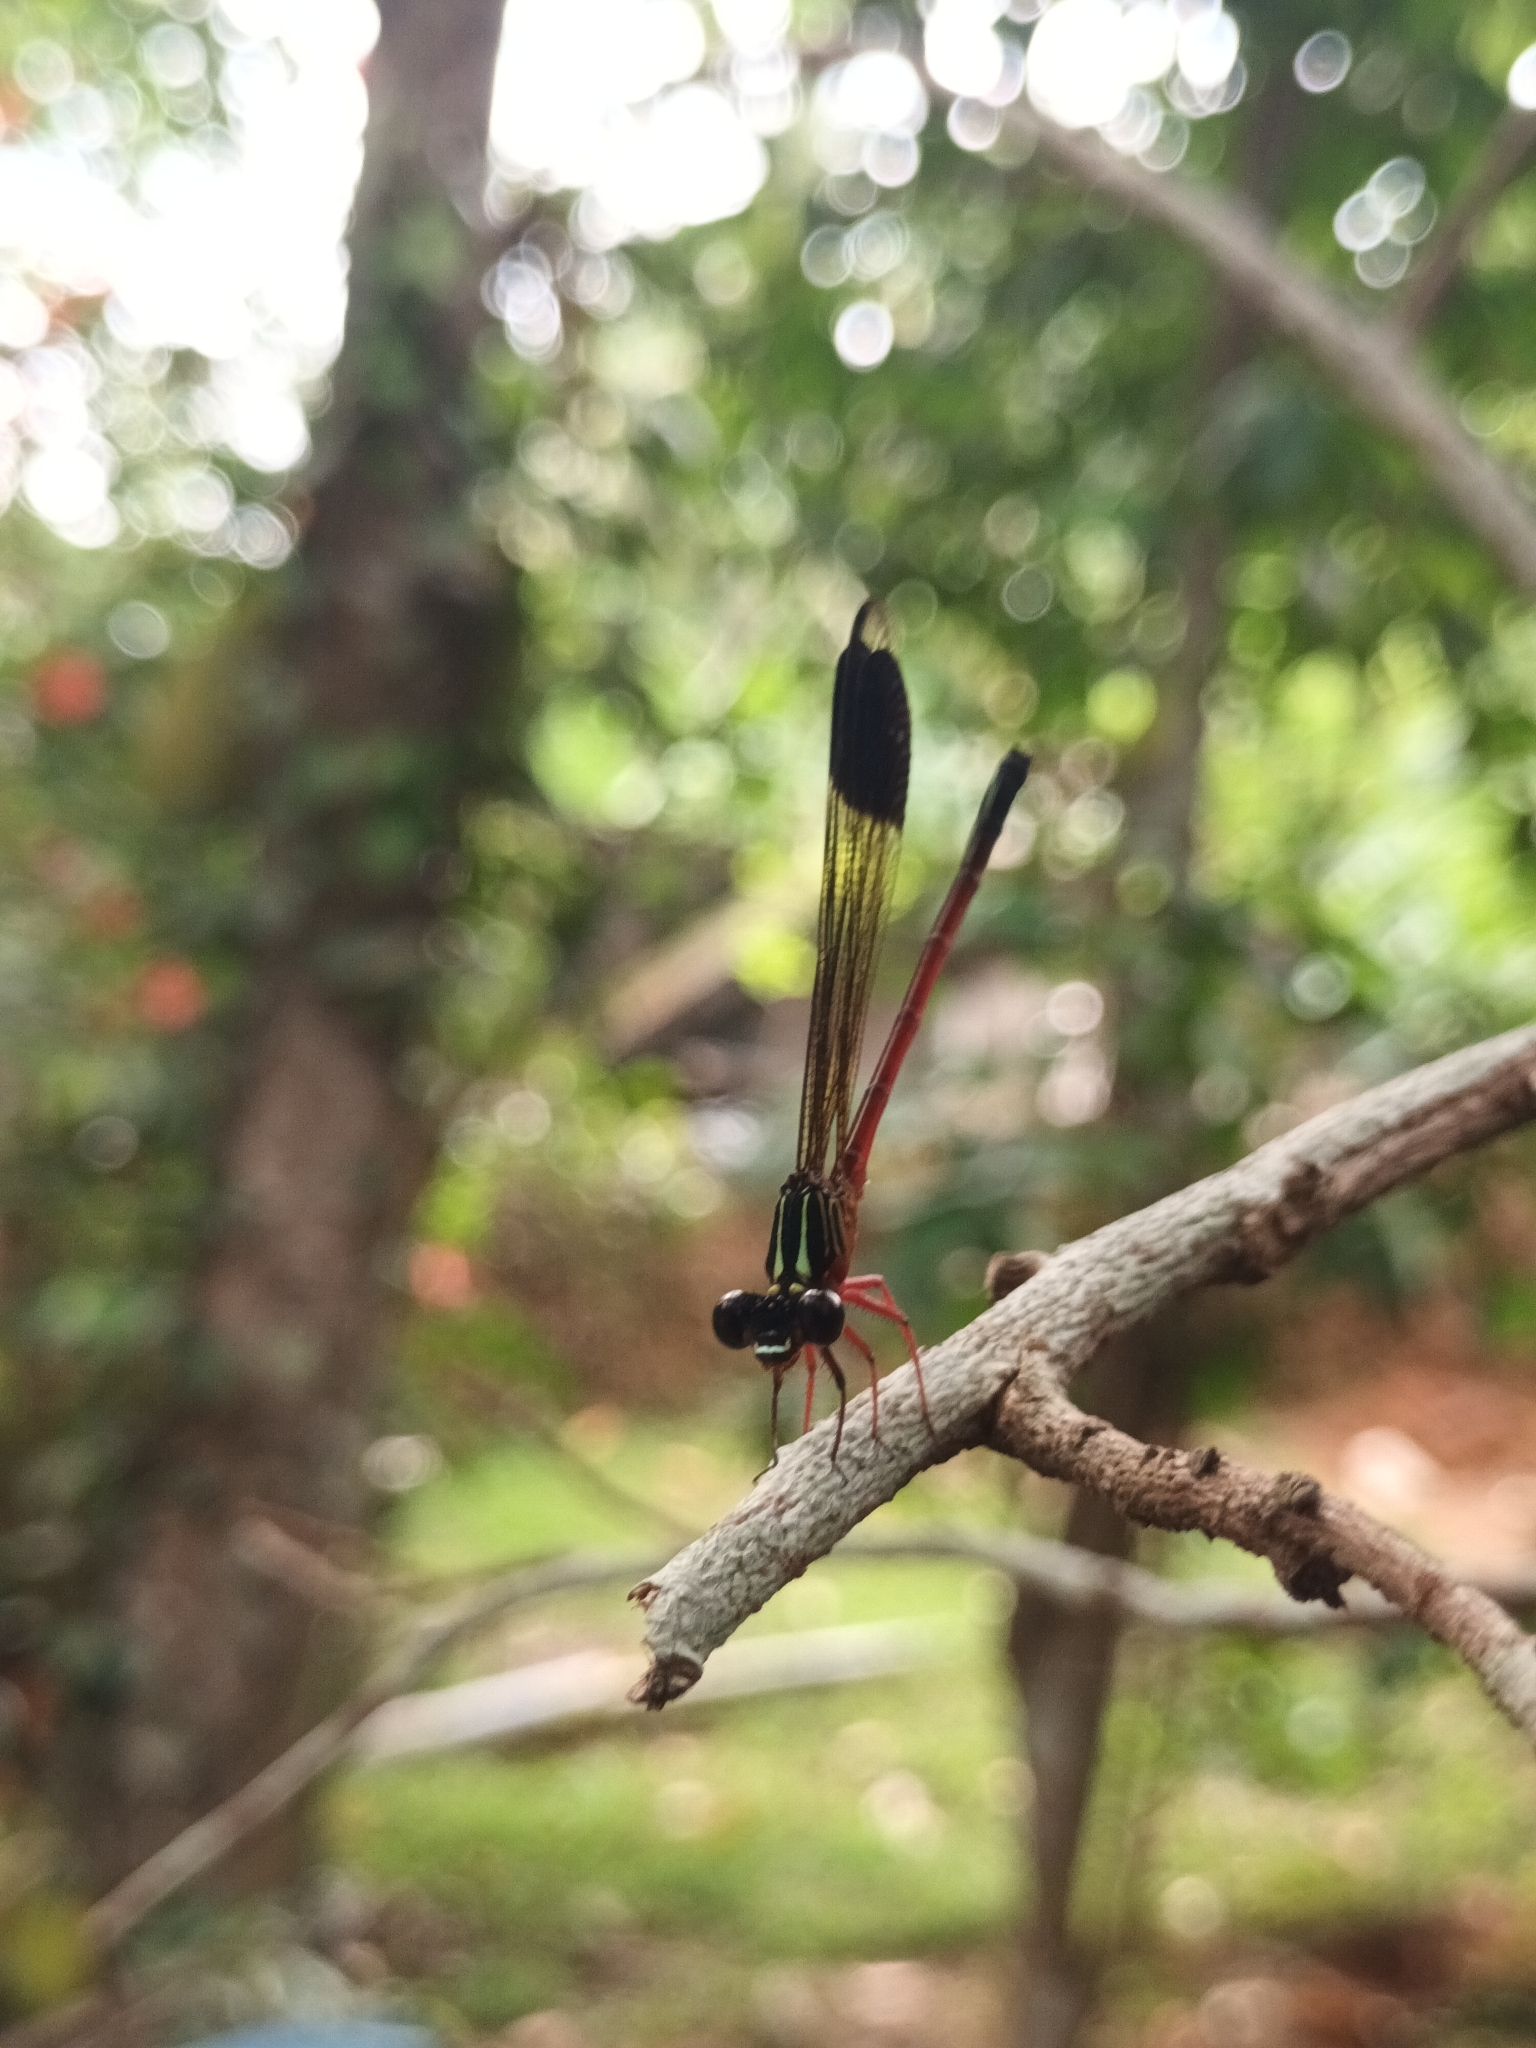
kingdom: Animalia
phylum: Arthropoda
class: Insecta
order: Odonata
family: Euphaeidae
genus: Euphaea
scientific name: Euphaea fraseri
